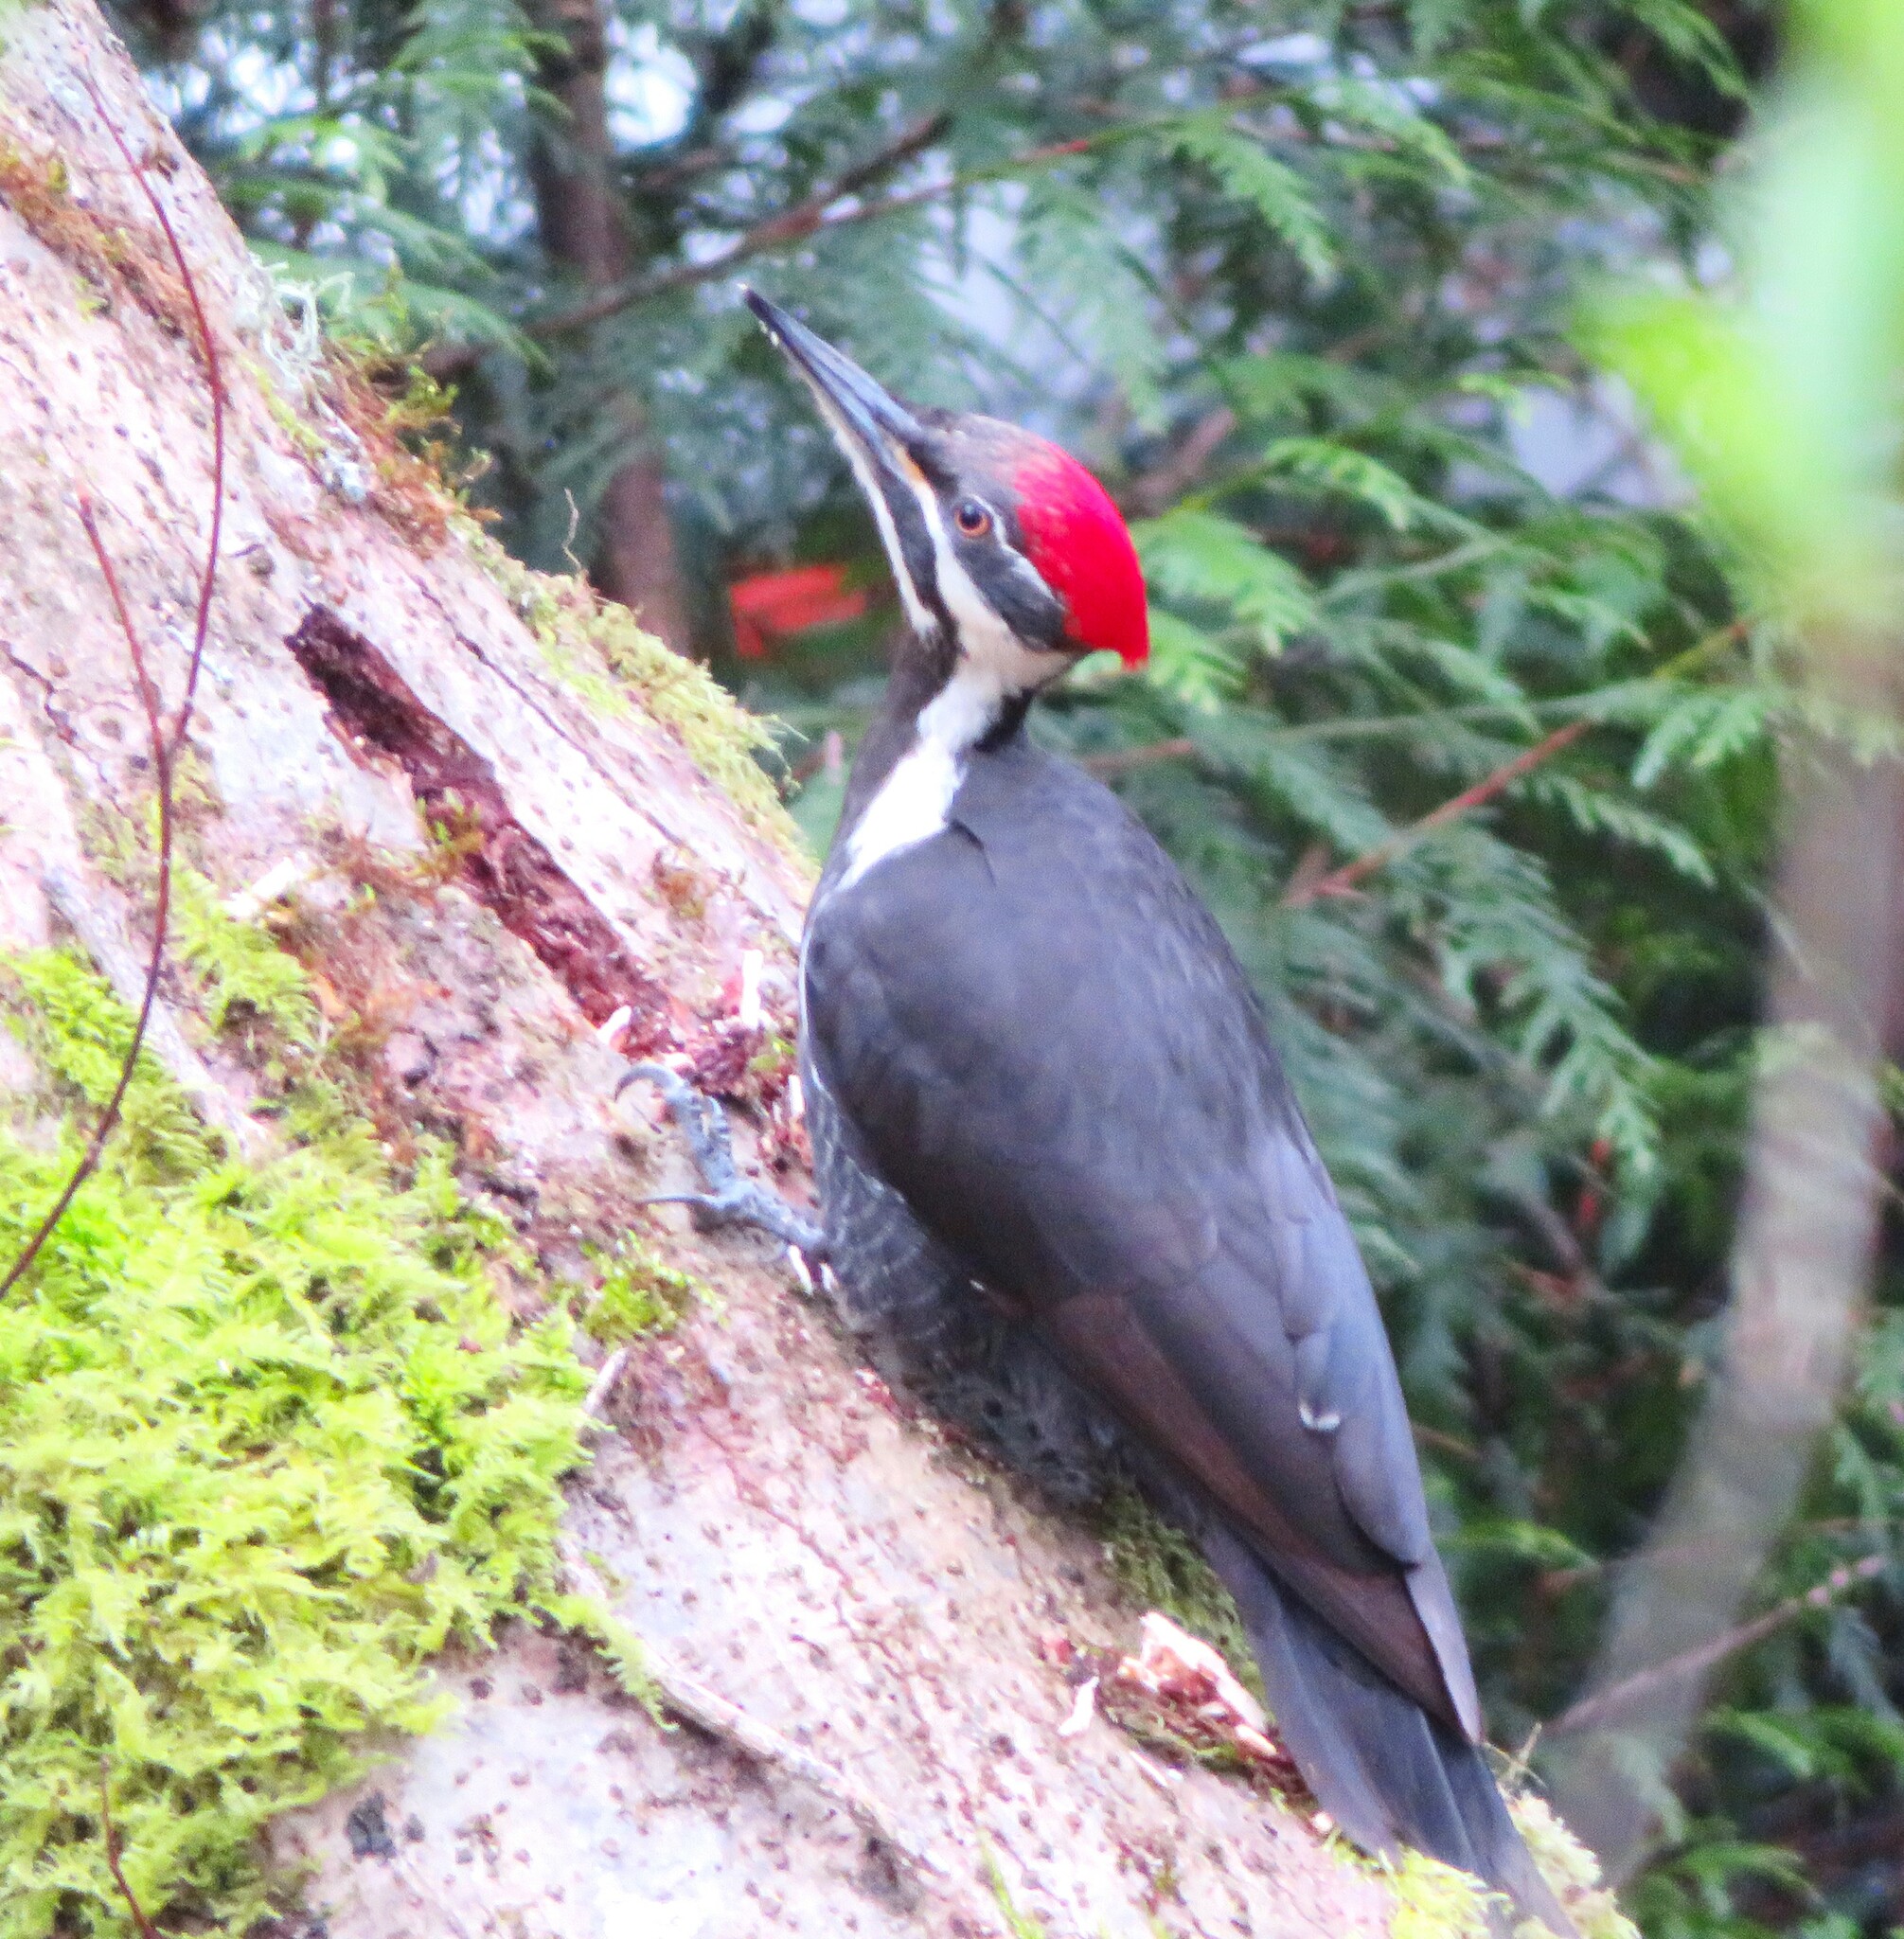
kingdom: Animalia
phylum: Chordata
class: Aves
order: Piciformes
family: Picidae
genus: Dryocopus
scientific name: Dryocopus pileatus
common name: Pileated woodpecker
